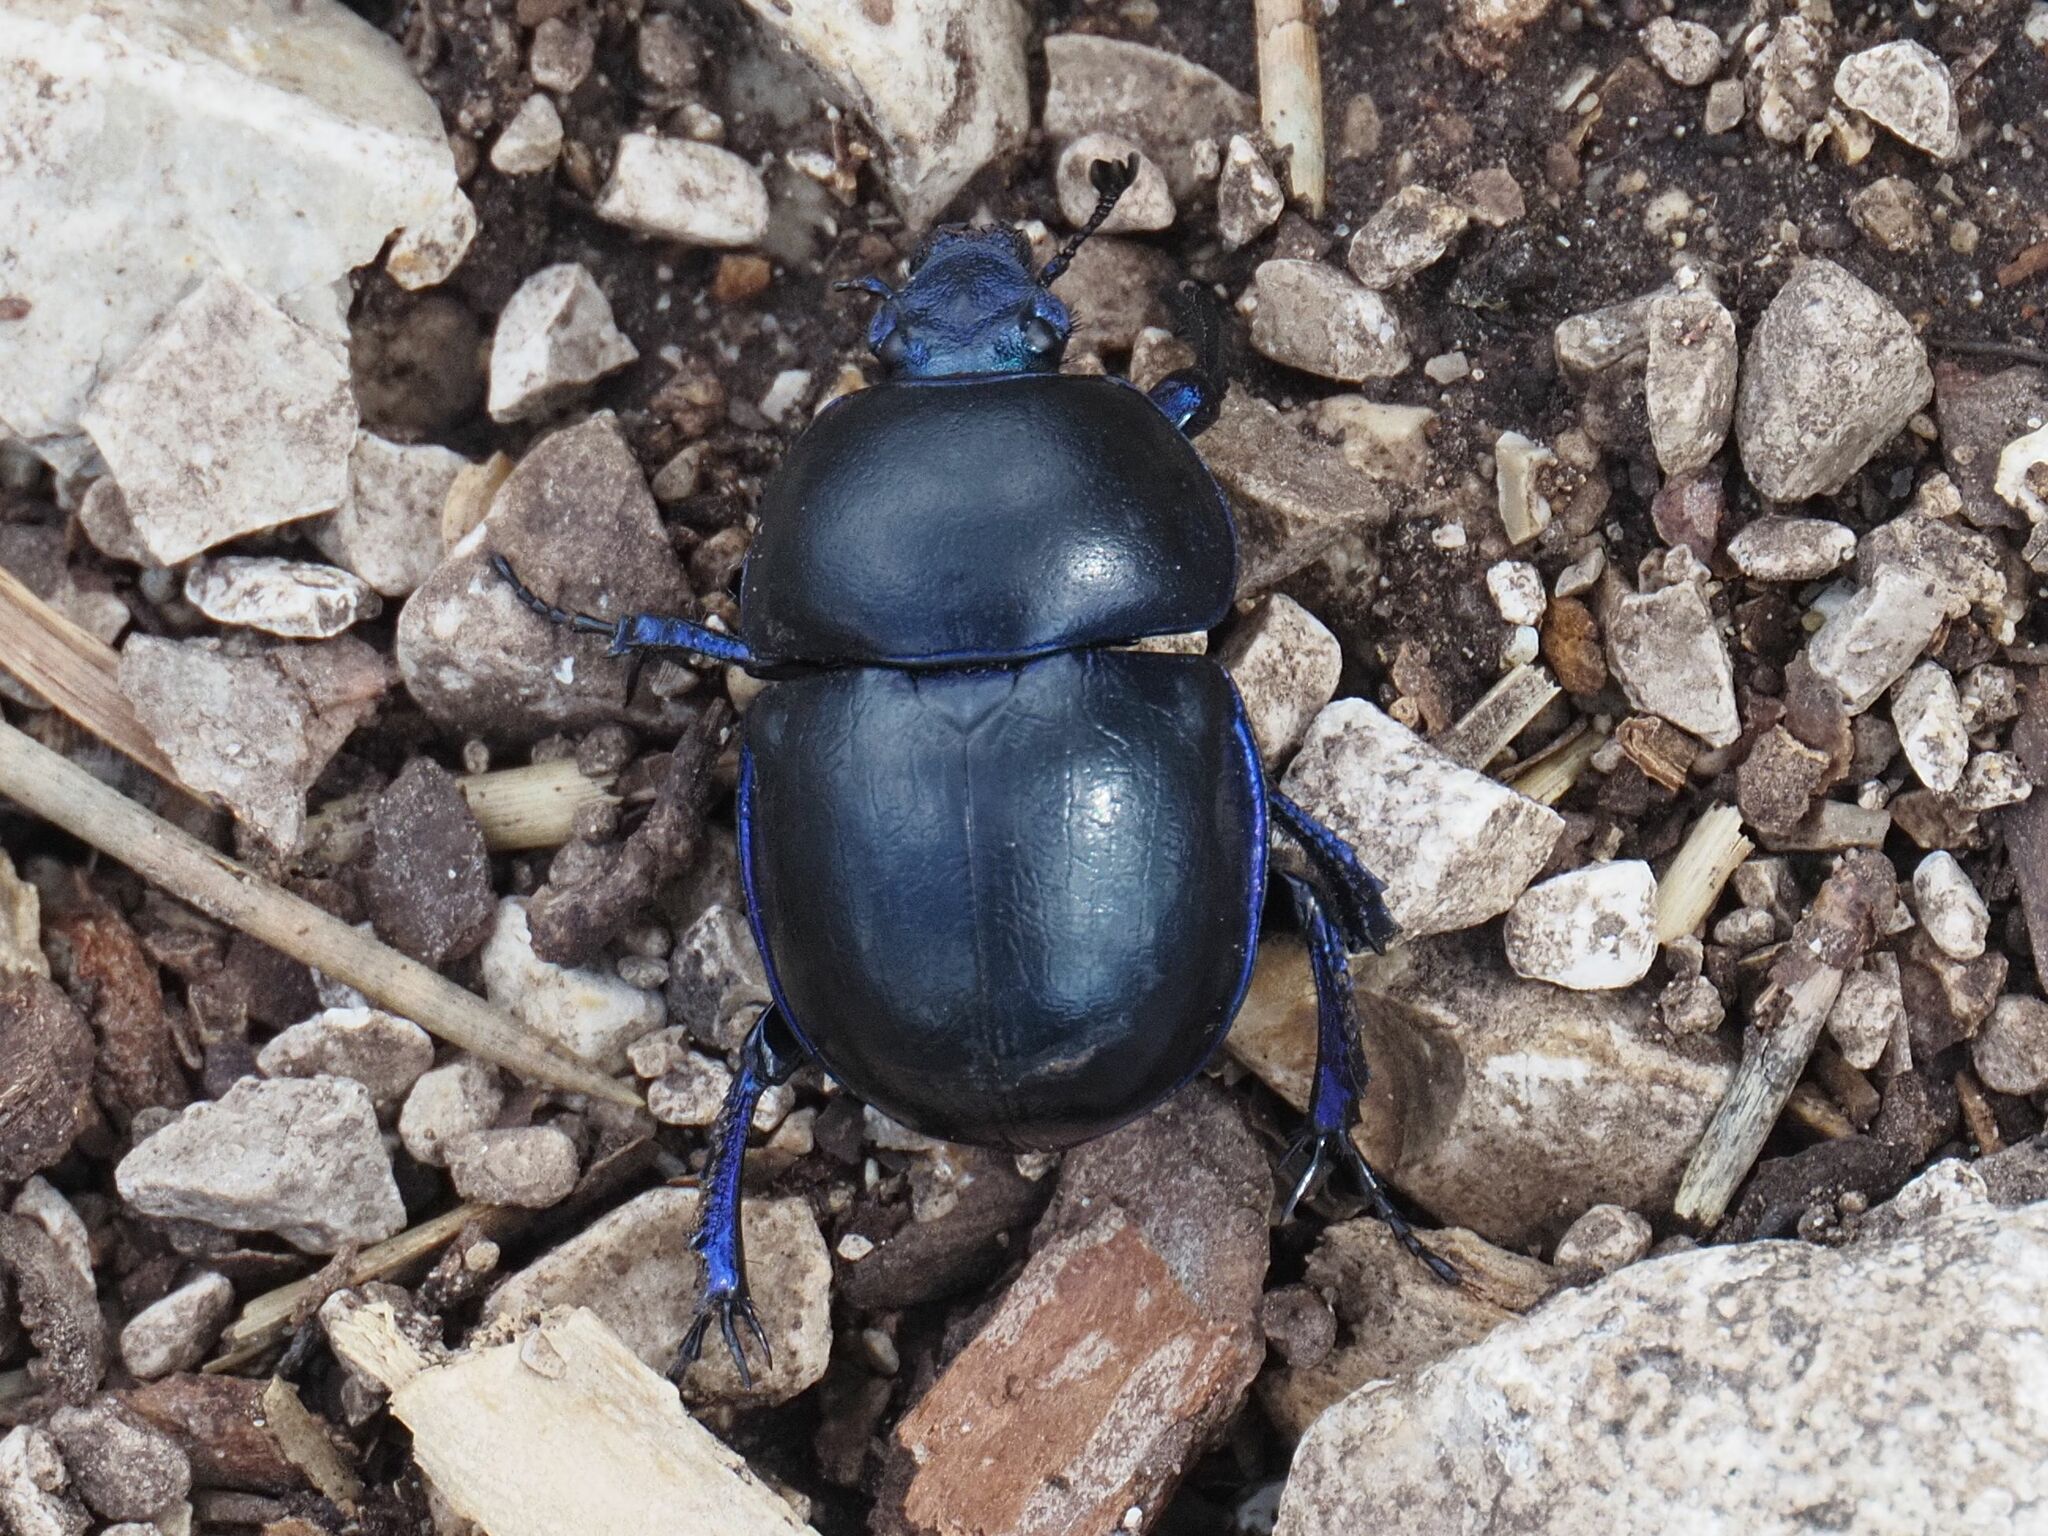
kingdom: Animalia
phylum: Arthropoda
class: Insecta
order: Coleoptera
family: Geotrupidae
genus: Trypocopris
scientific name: Trypocopris vernalis
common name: Spring dumbledor
